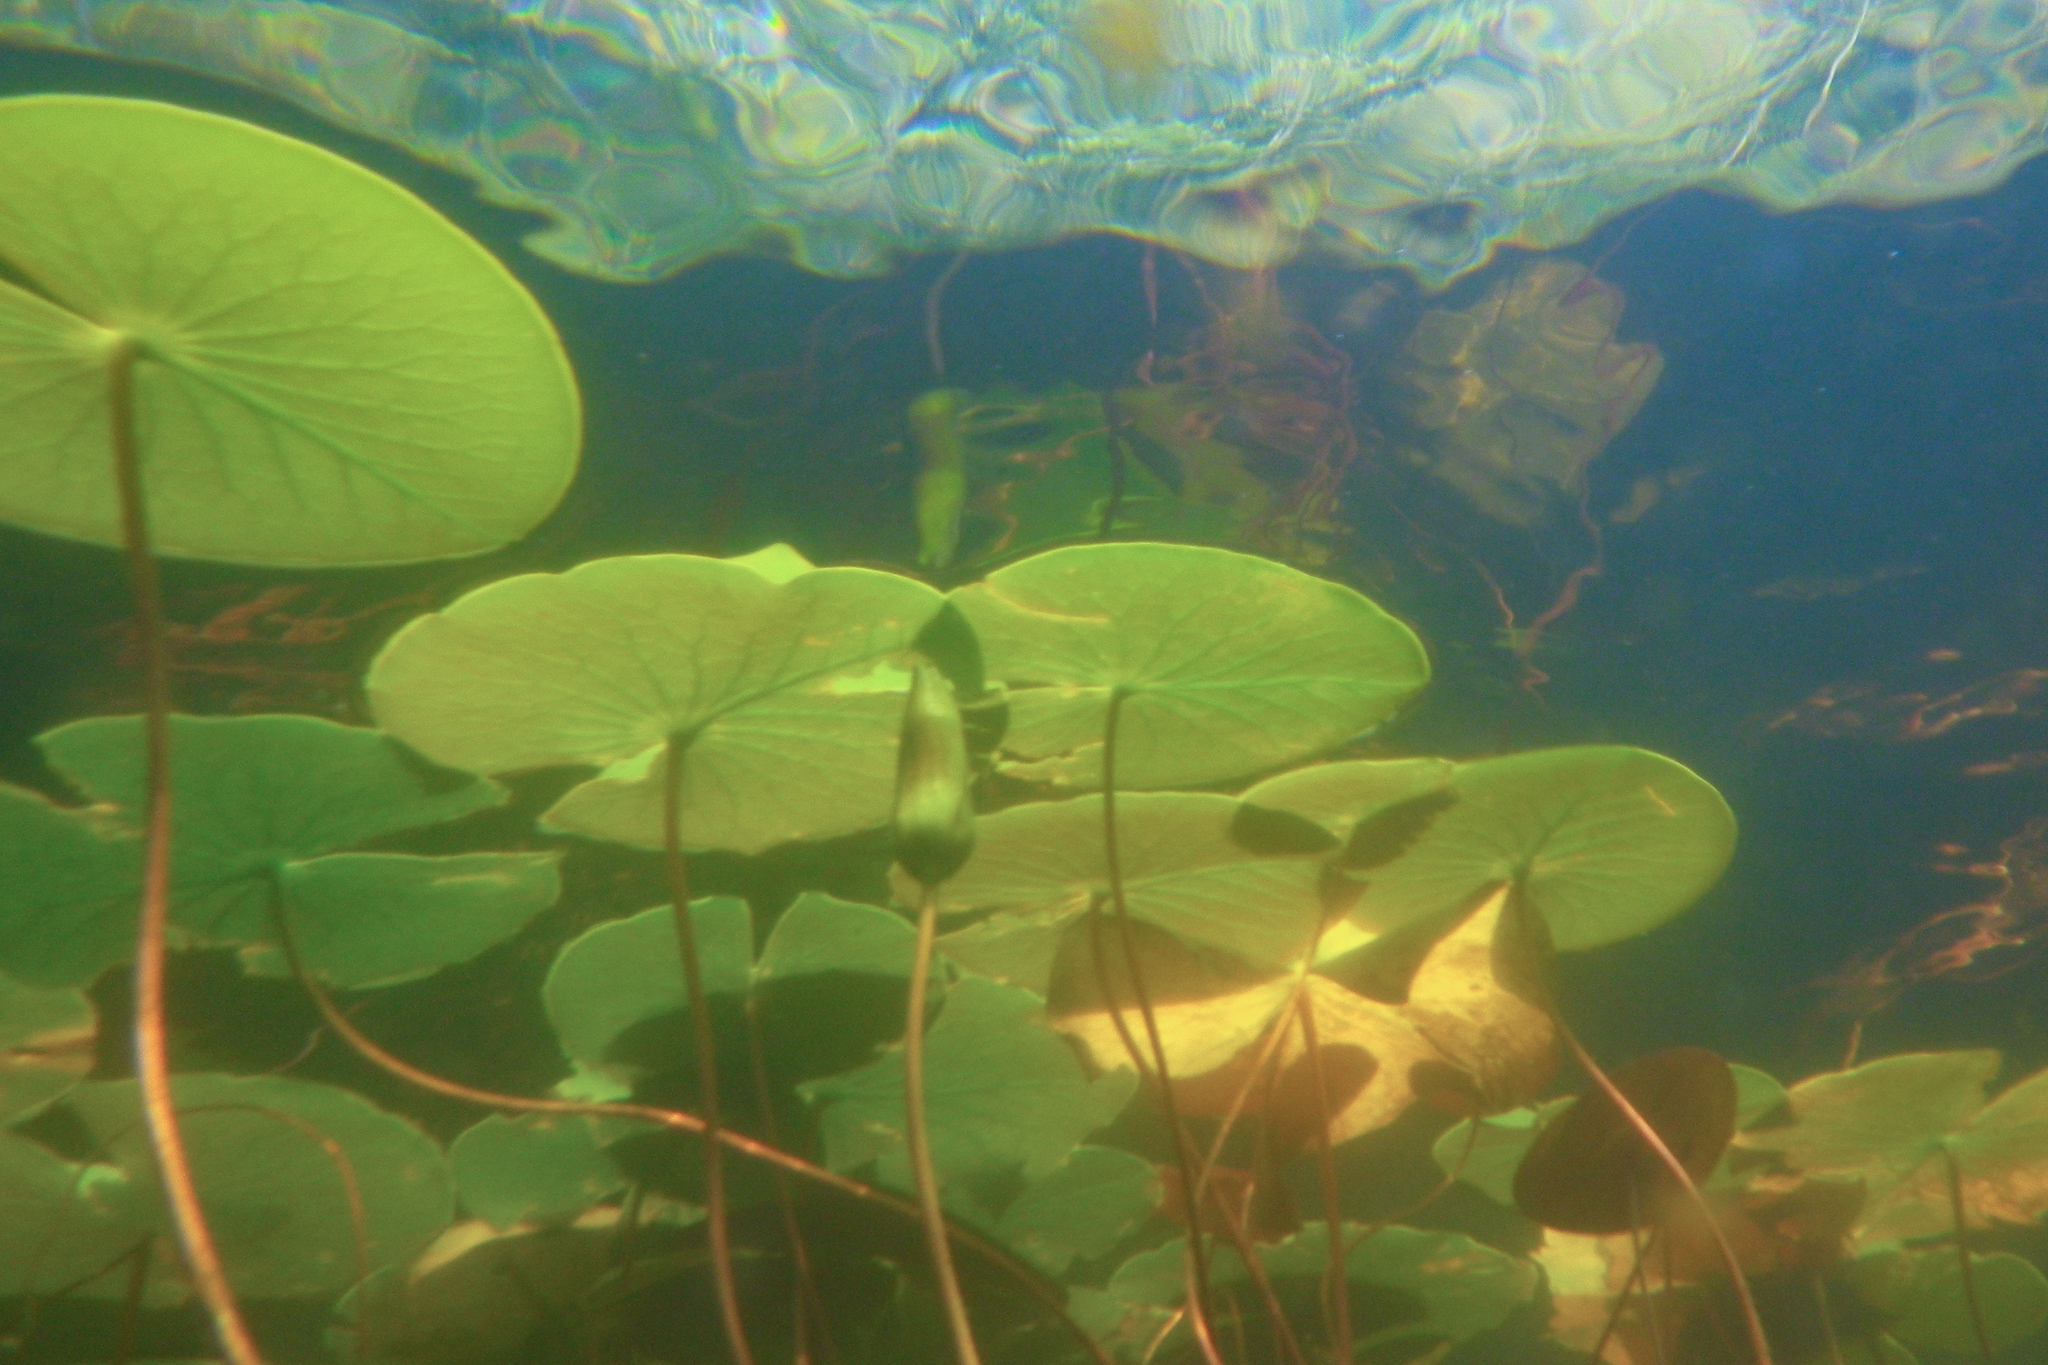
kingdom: Plantae
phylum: Tracheophyta
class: Magnoliopsida
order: Nymphaeales
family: Nymphaeaceae
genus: Nymphaea
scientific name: Nymphaea odorata
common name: Fragrant water-lily
